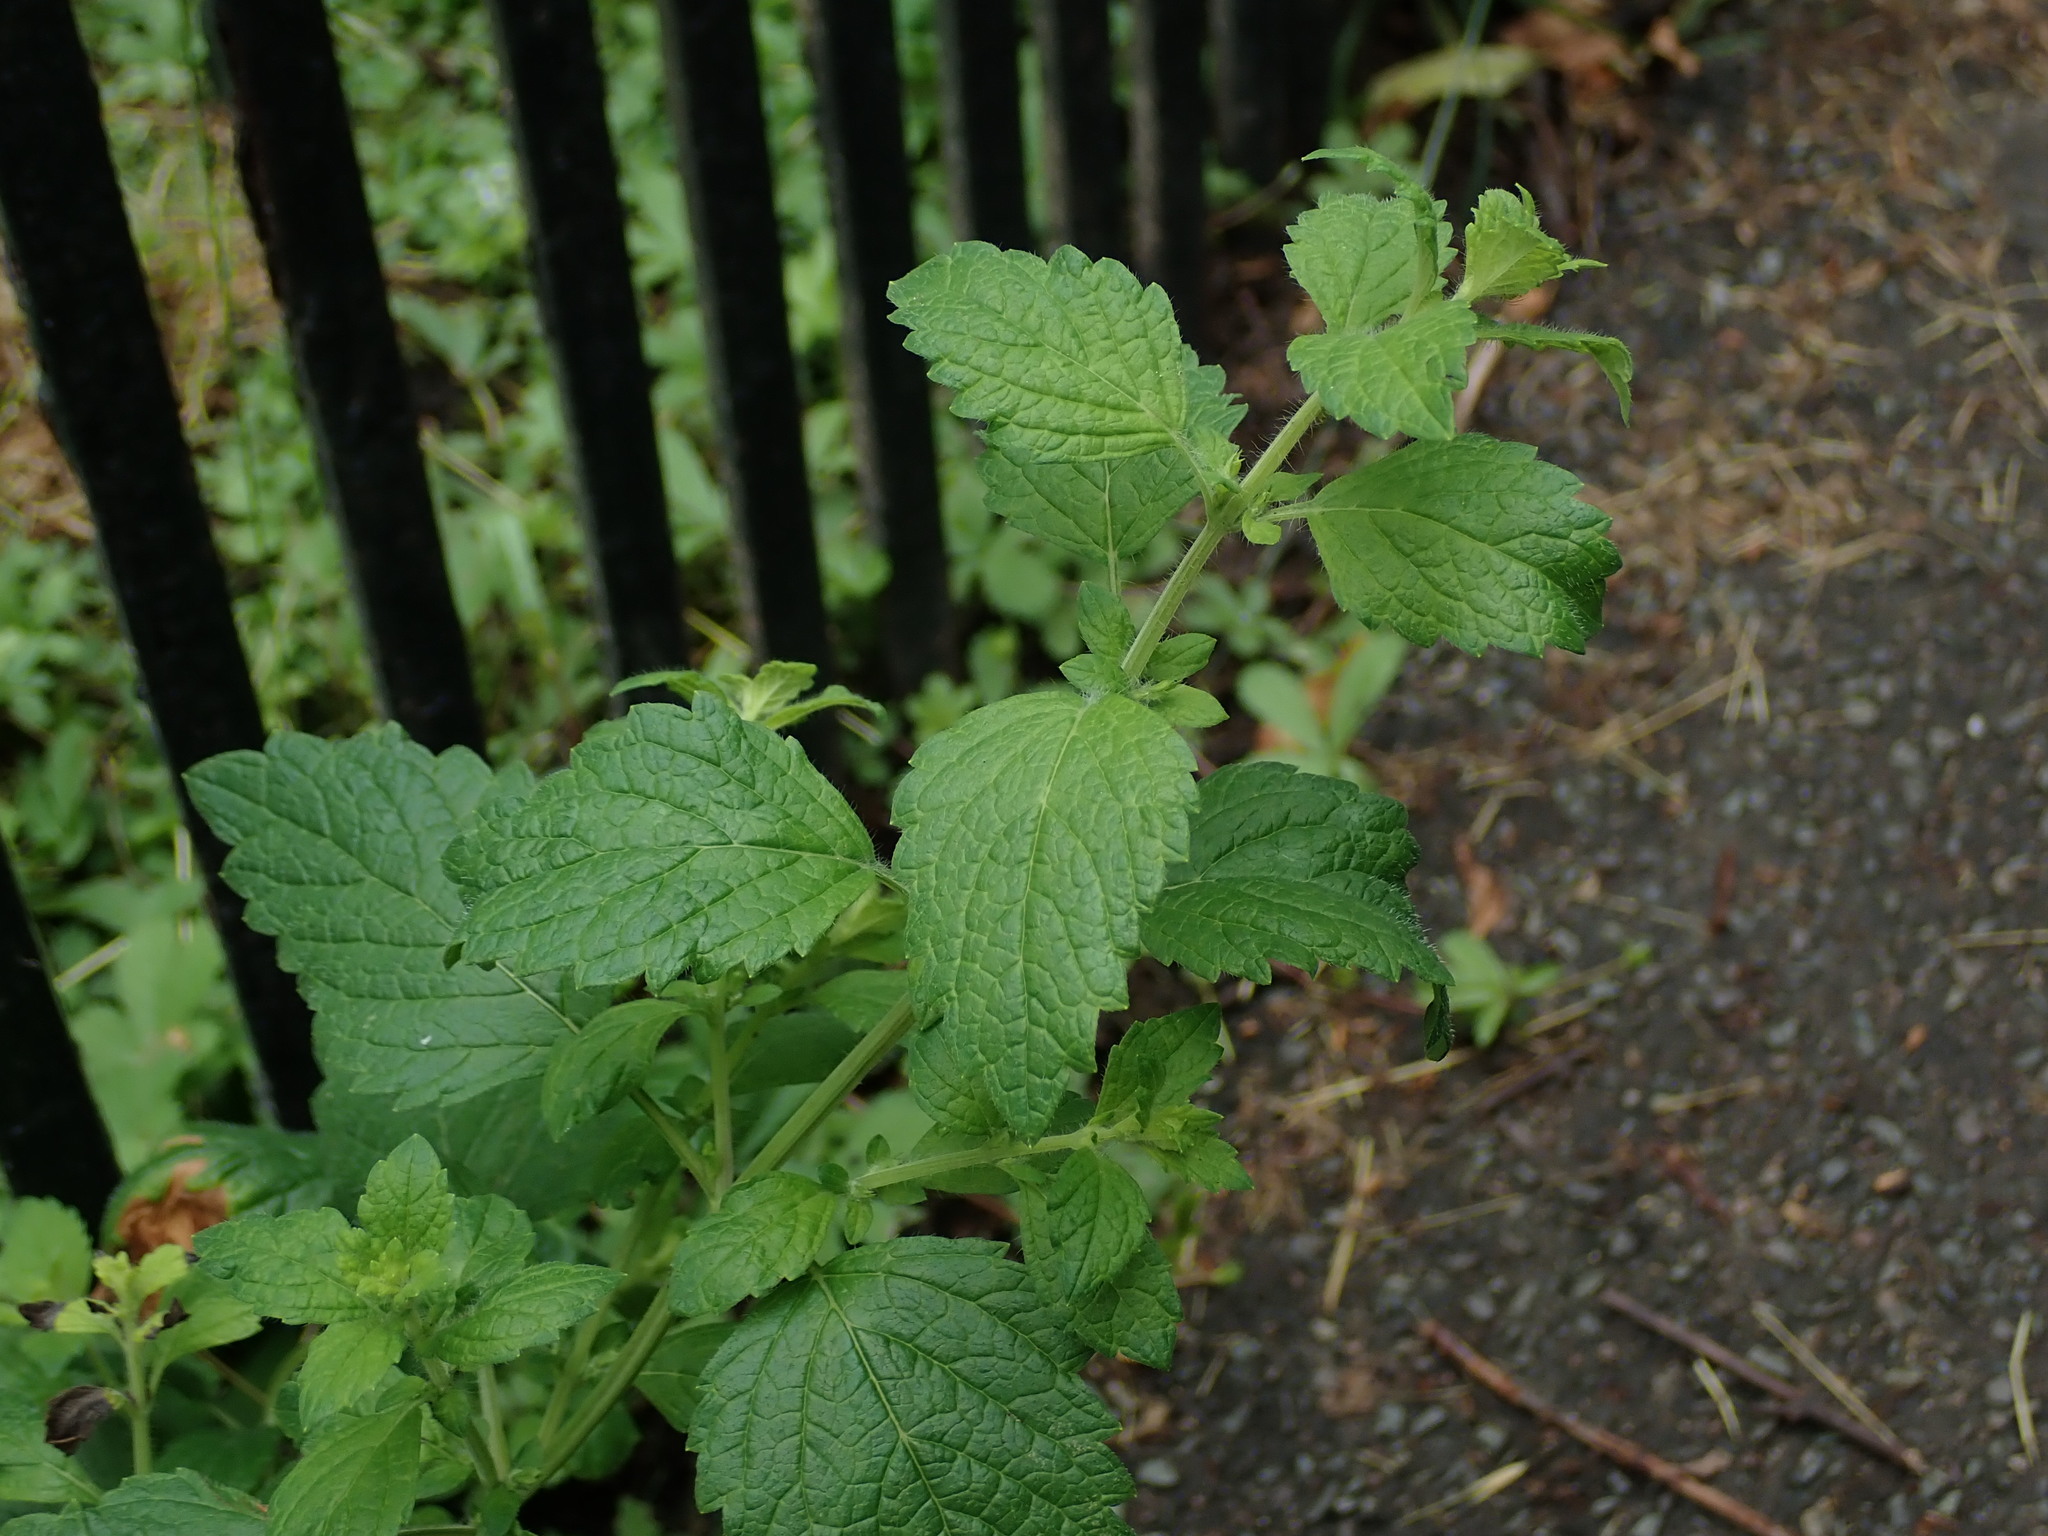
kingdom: Plantae
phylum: Tracheophyta
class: Magnoliopsida
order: Lamiales
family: Lamiaceae
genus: Melissa
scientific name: Melissa officinalis
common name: Balm
